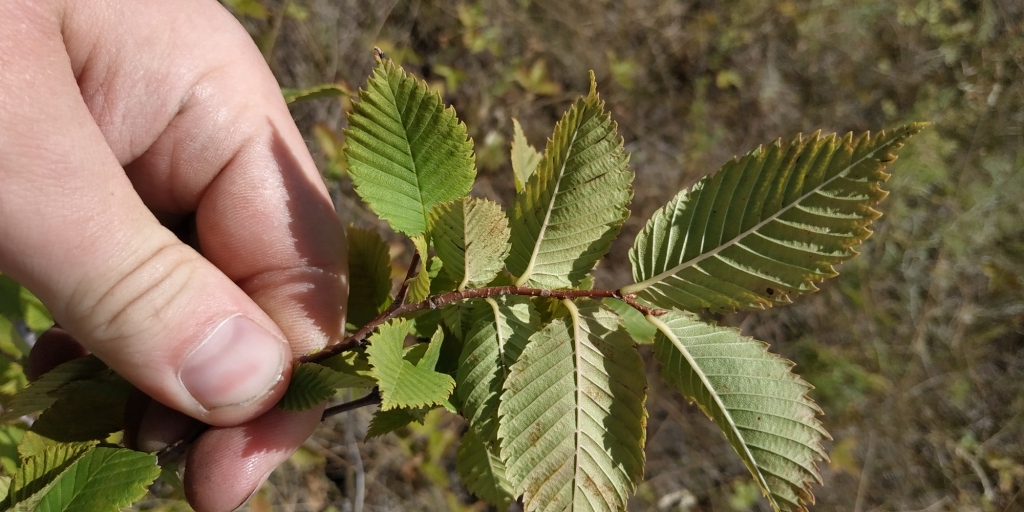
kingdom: Plantae
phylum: Tracheophyta
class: Magnoliopsida
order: Rosales
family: Ulmaceae
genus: Ulmus
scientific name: Ulmus pumila
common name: Siberian elm
